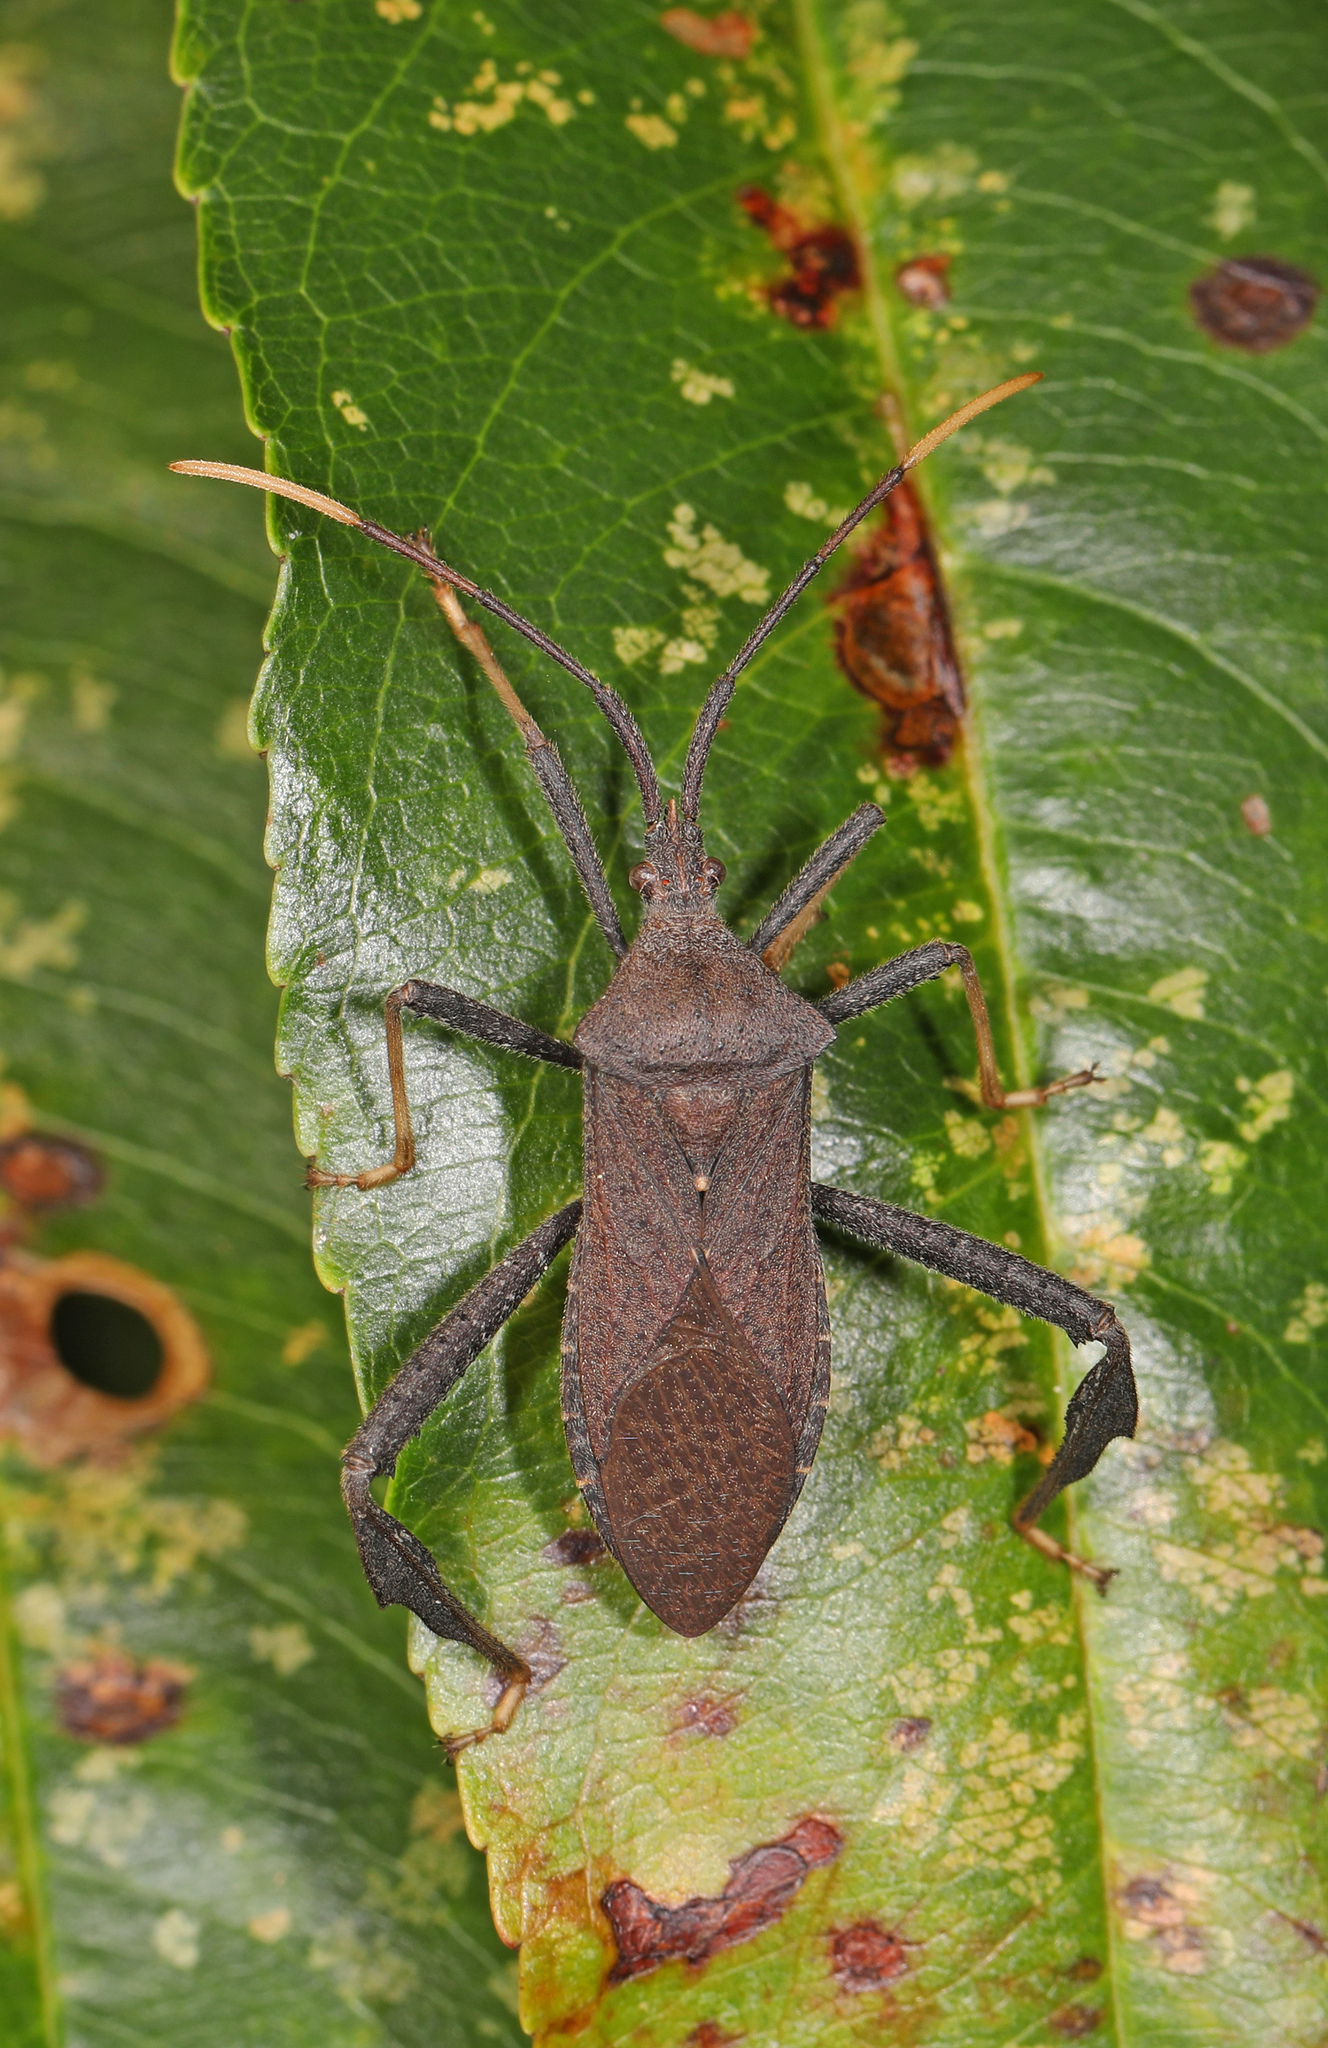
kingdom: Animalia
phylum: Arthropoda
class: Insecta
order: Hemiptera
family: Coreidae
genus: Acanthocephala
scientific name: Acanthocephala terminalis
